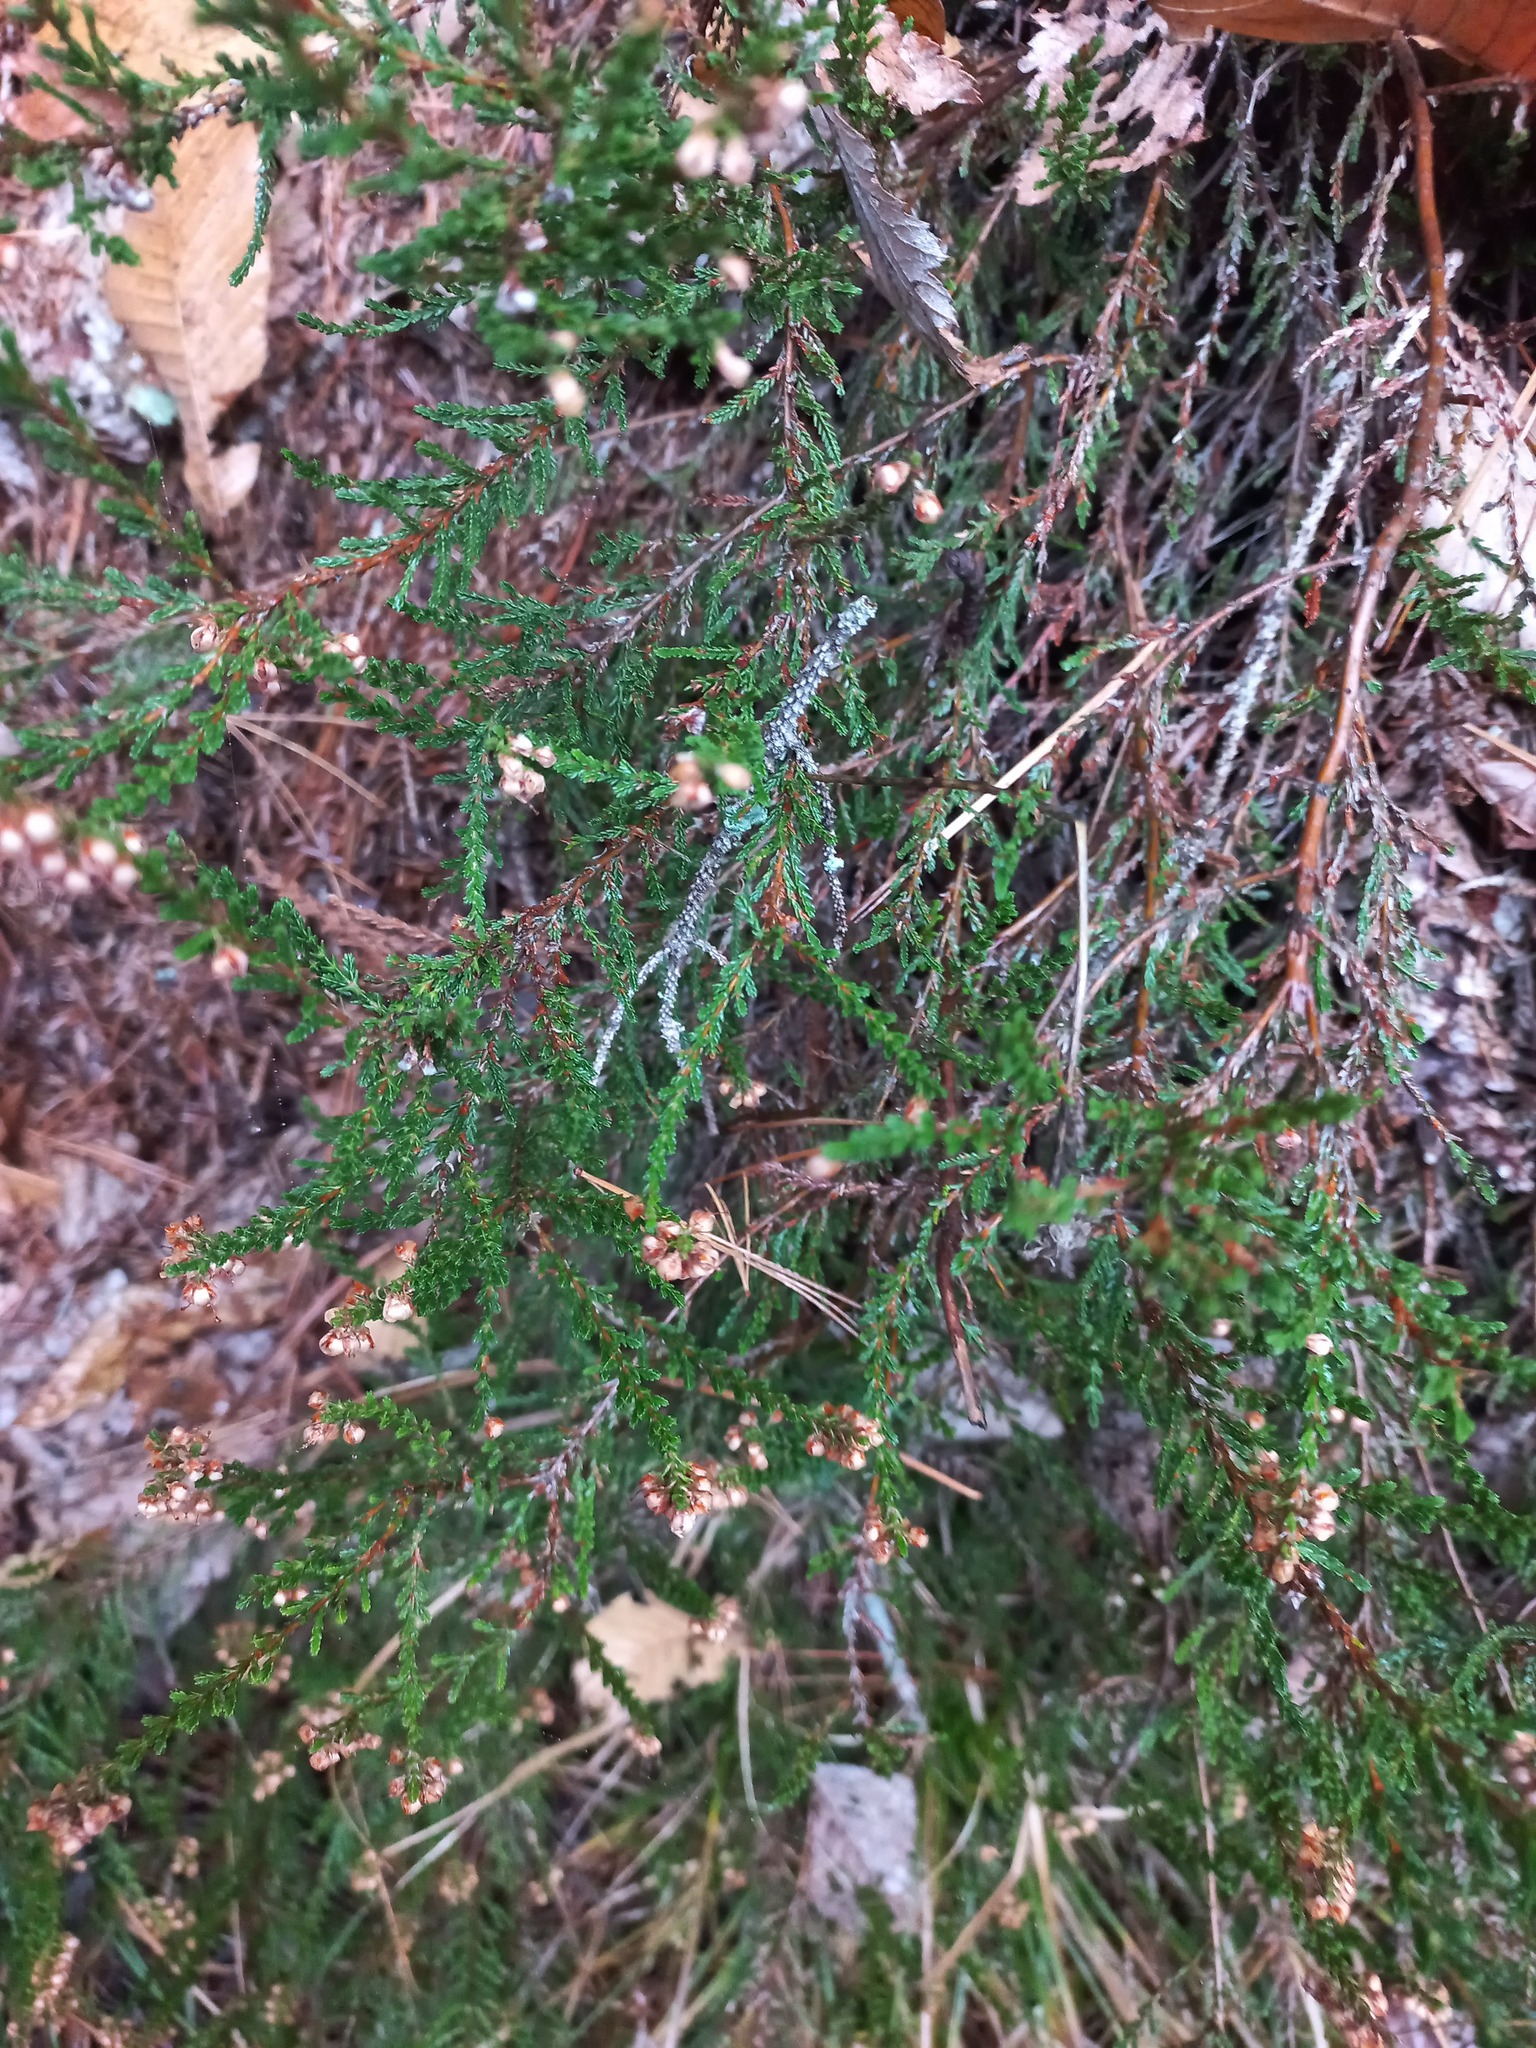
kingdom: Plantae
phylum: Tracheophyta
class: Magnoliopsida
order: Ericales
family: Ericaceae
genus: Calluna
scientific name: Calluna vulgaris
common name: Heather
